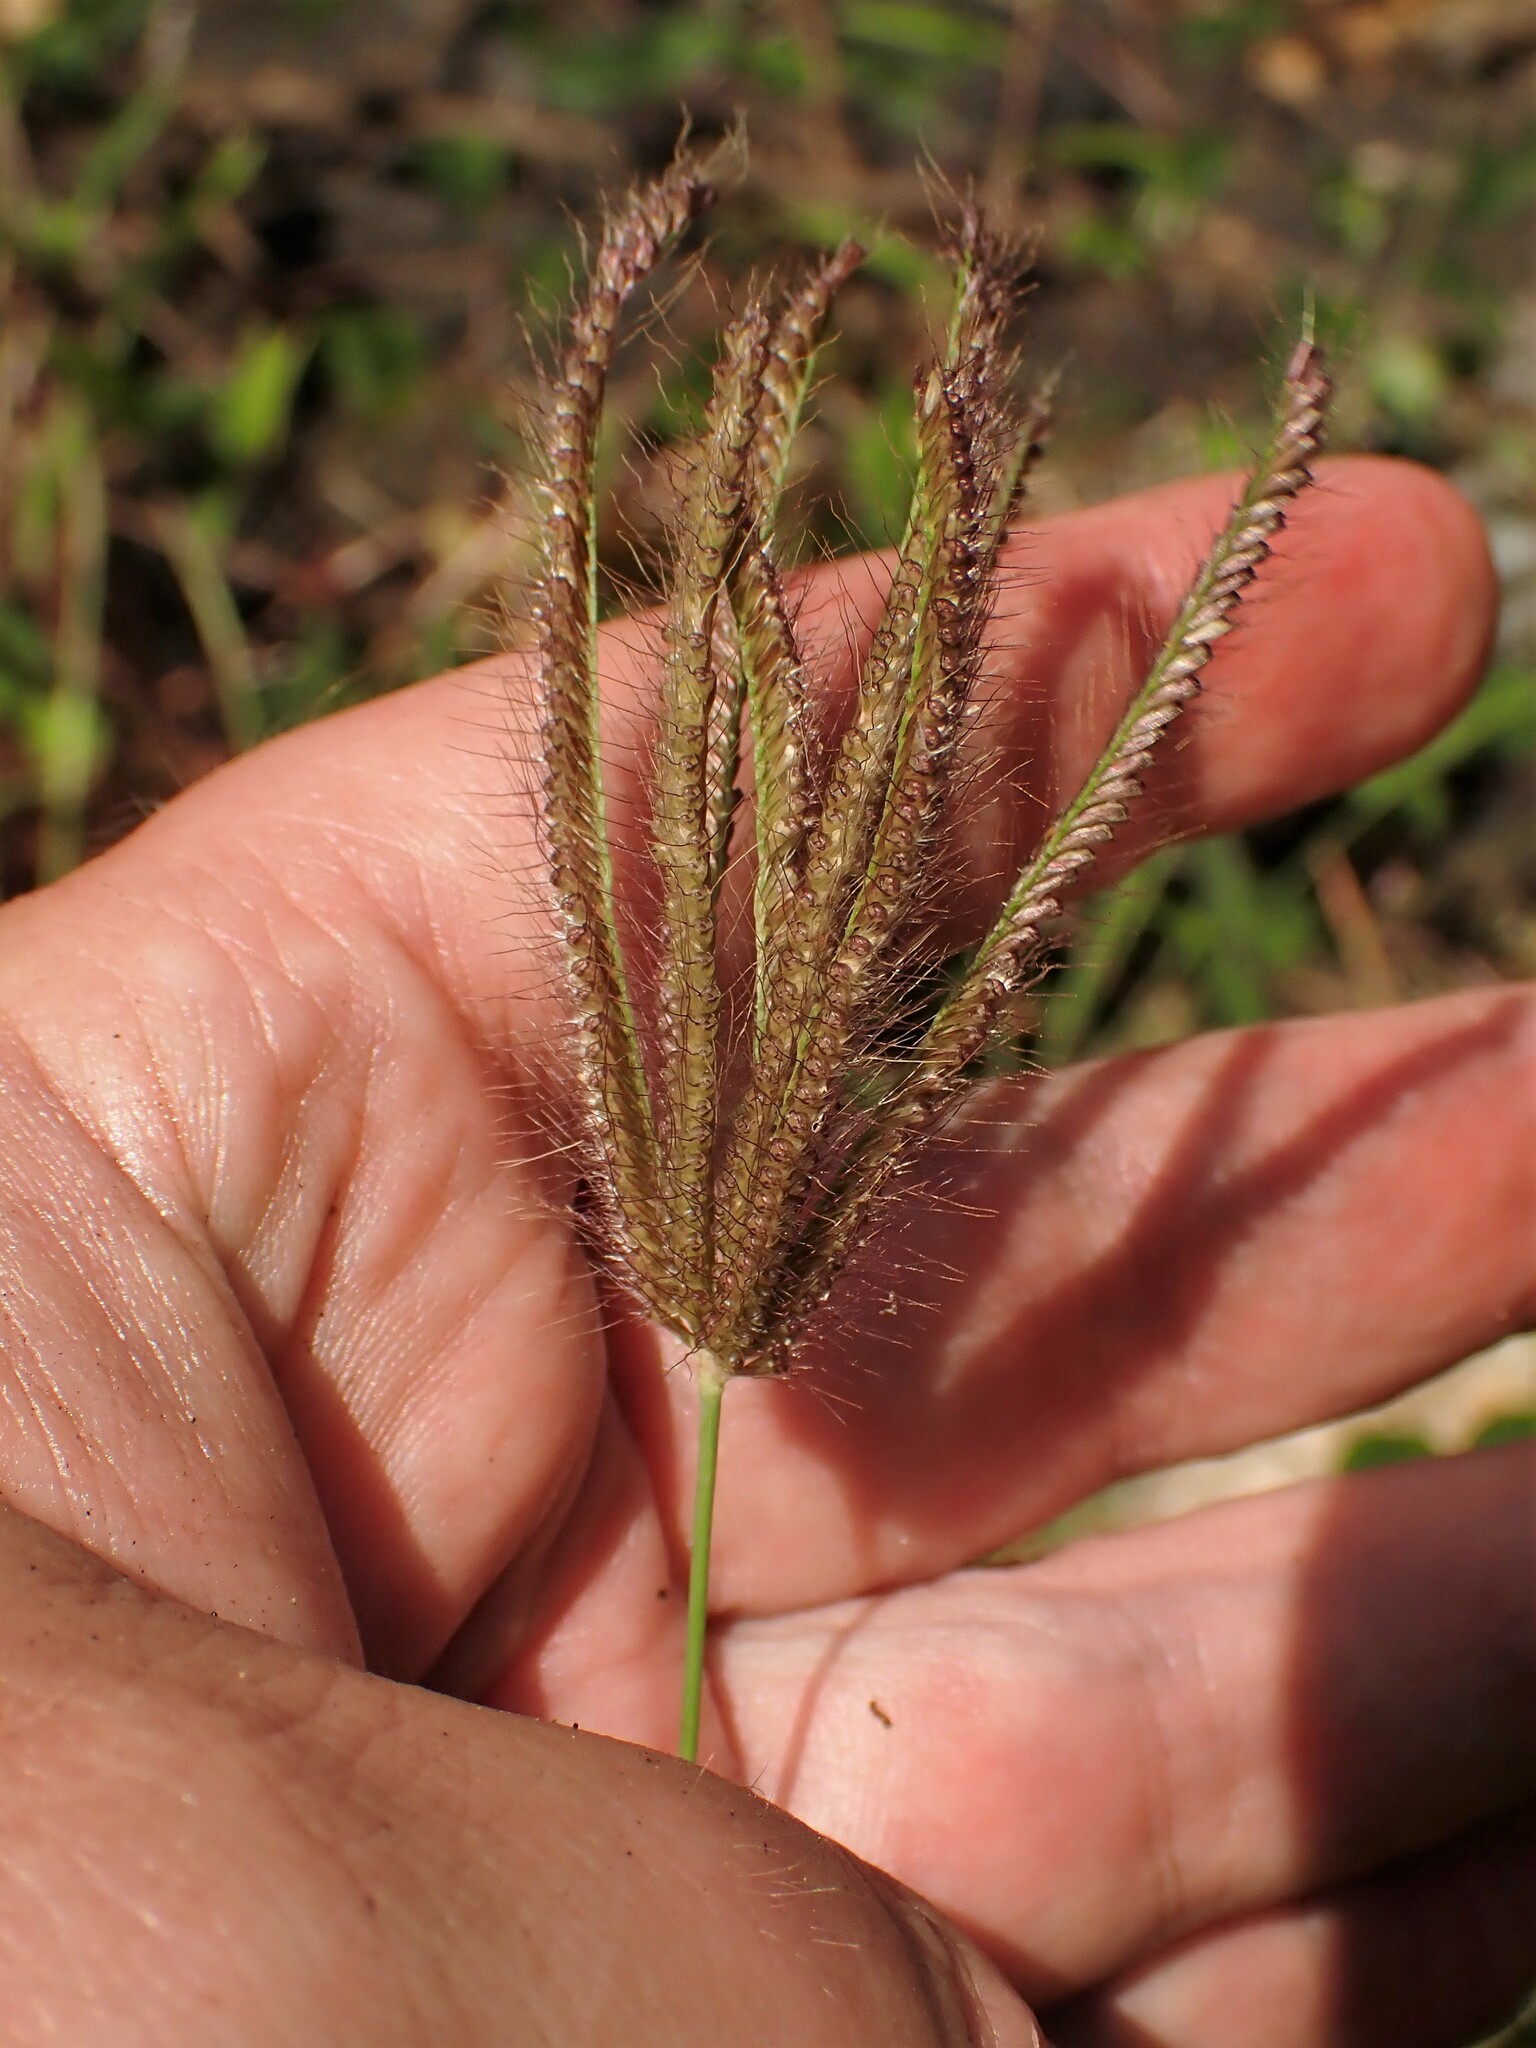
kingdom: Plantae
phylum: Tracheophyta
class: Liliopsida
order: Poales
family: Poaceae
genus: Chloris
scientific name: Chloris barbata
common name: Swollen fingergrass
